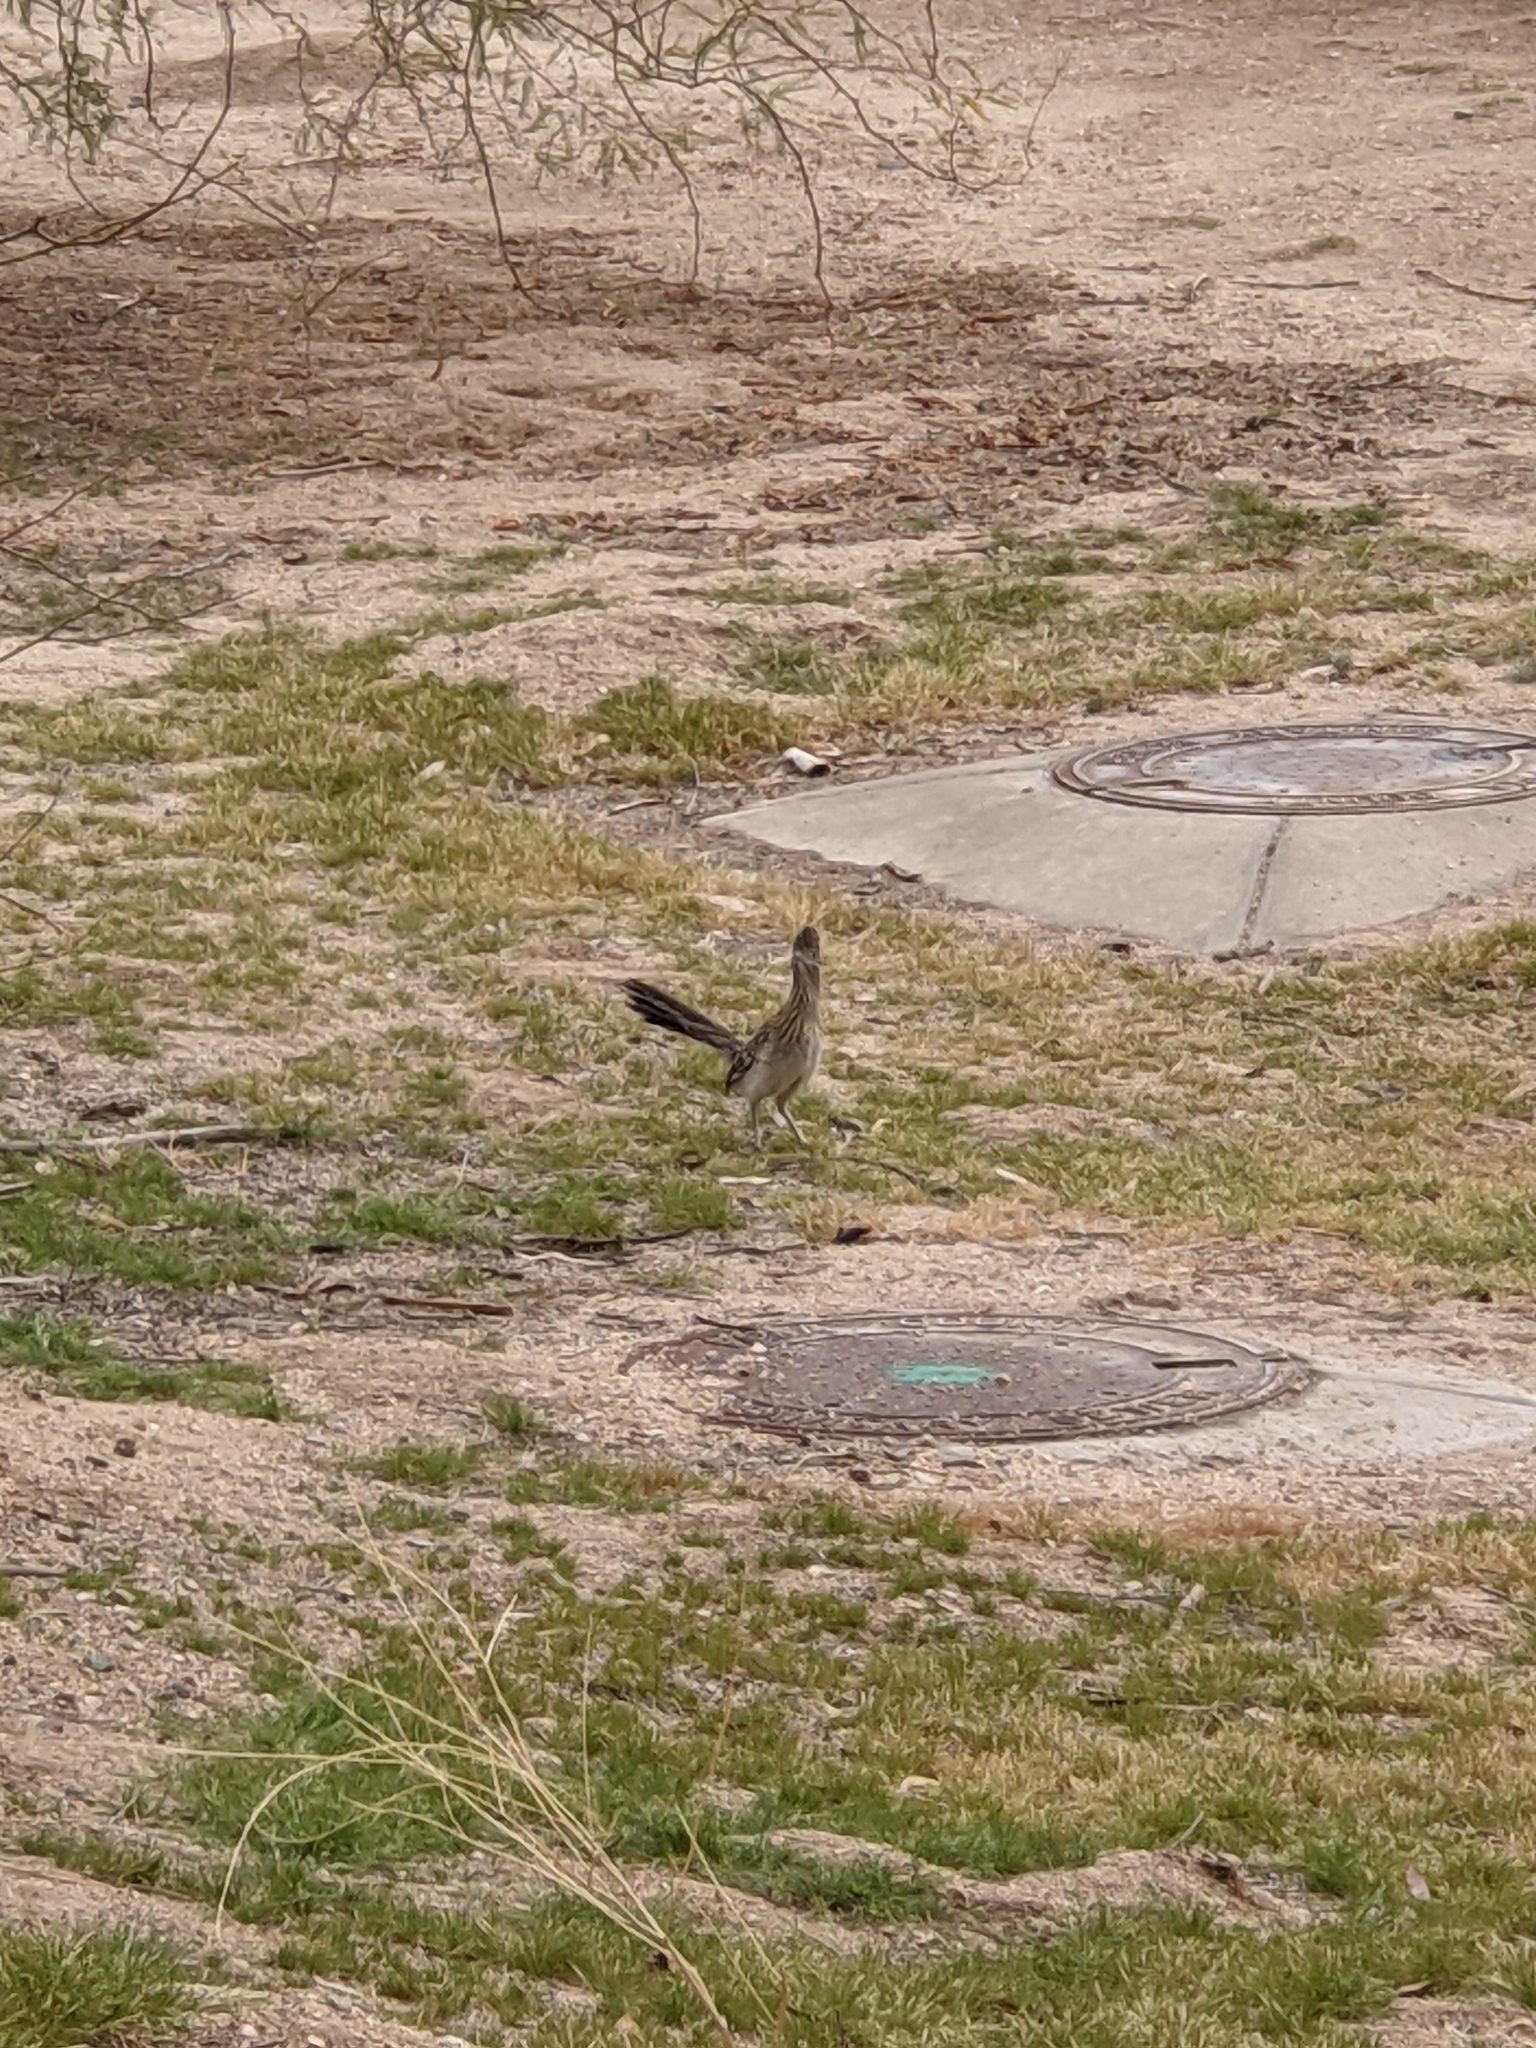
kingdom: Animalia
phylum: Chordata
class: Aves
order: Cuculiformes
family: Cuculidae
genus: Geococcyx
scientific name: Geococcyx californianus
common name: Greater roadrunner
